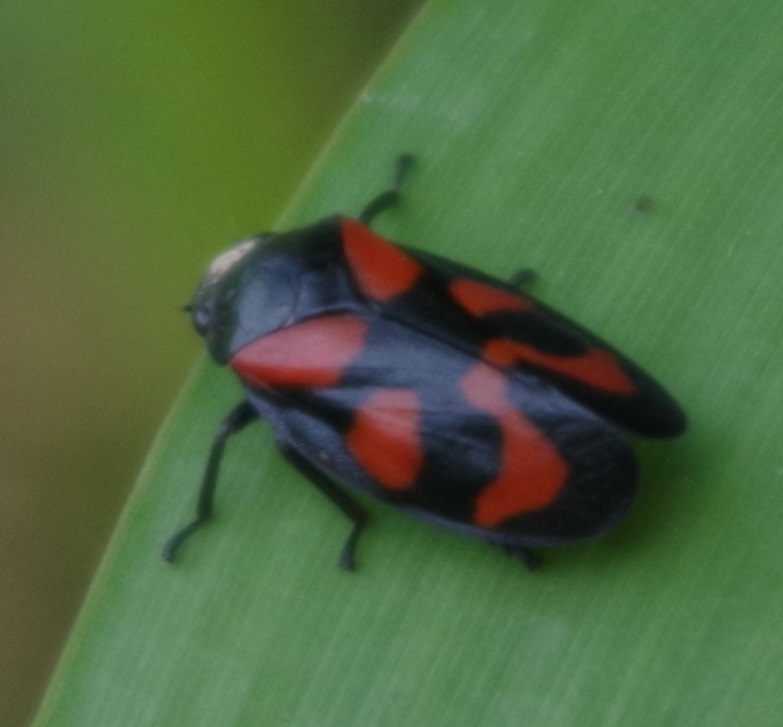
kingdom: Animalia
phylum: Arthropoda
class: Insecta
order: Hemiptera
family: Cercopidae
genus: Cercopis
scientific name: Cercopis vulnerata
